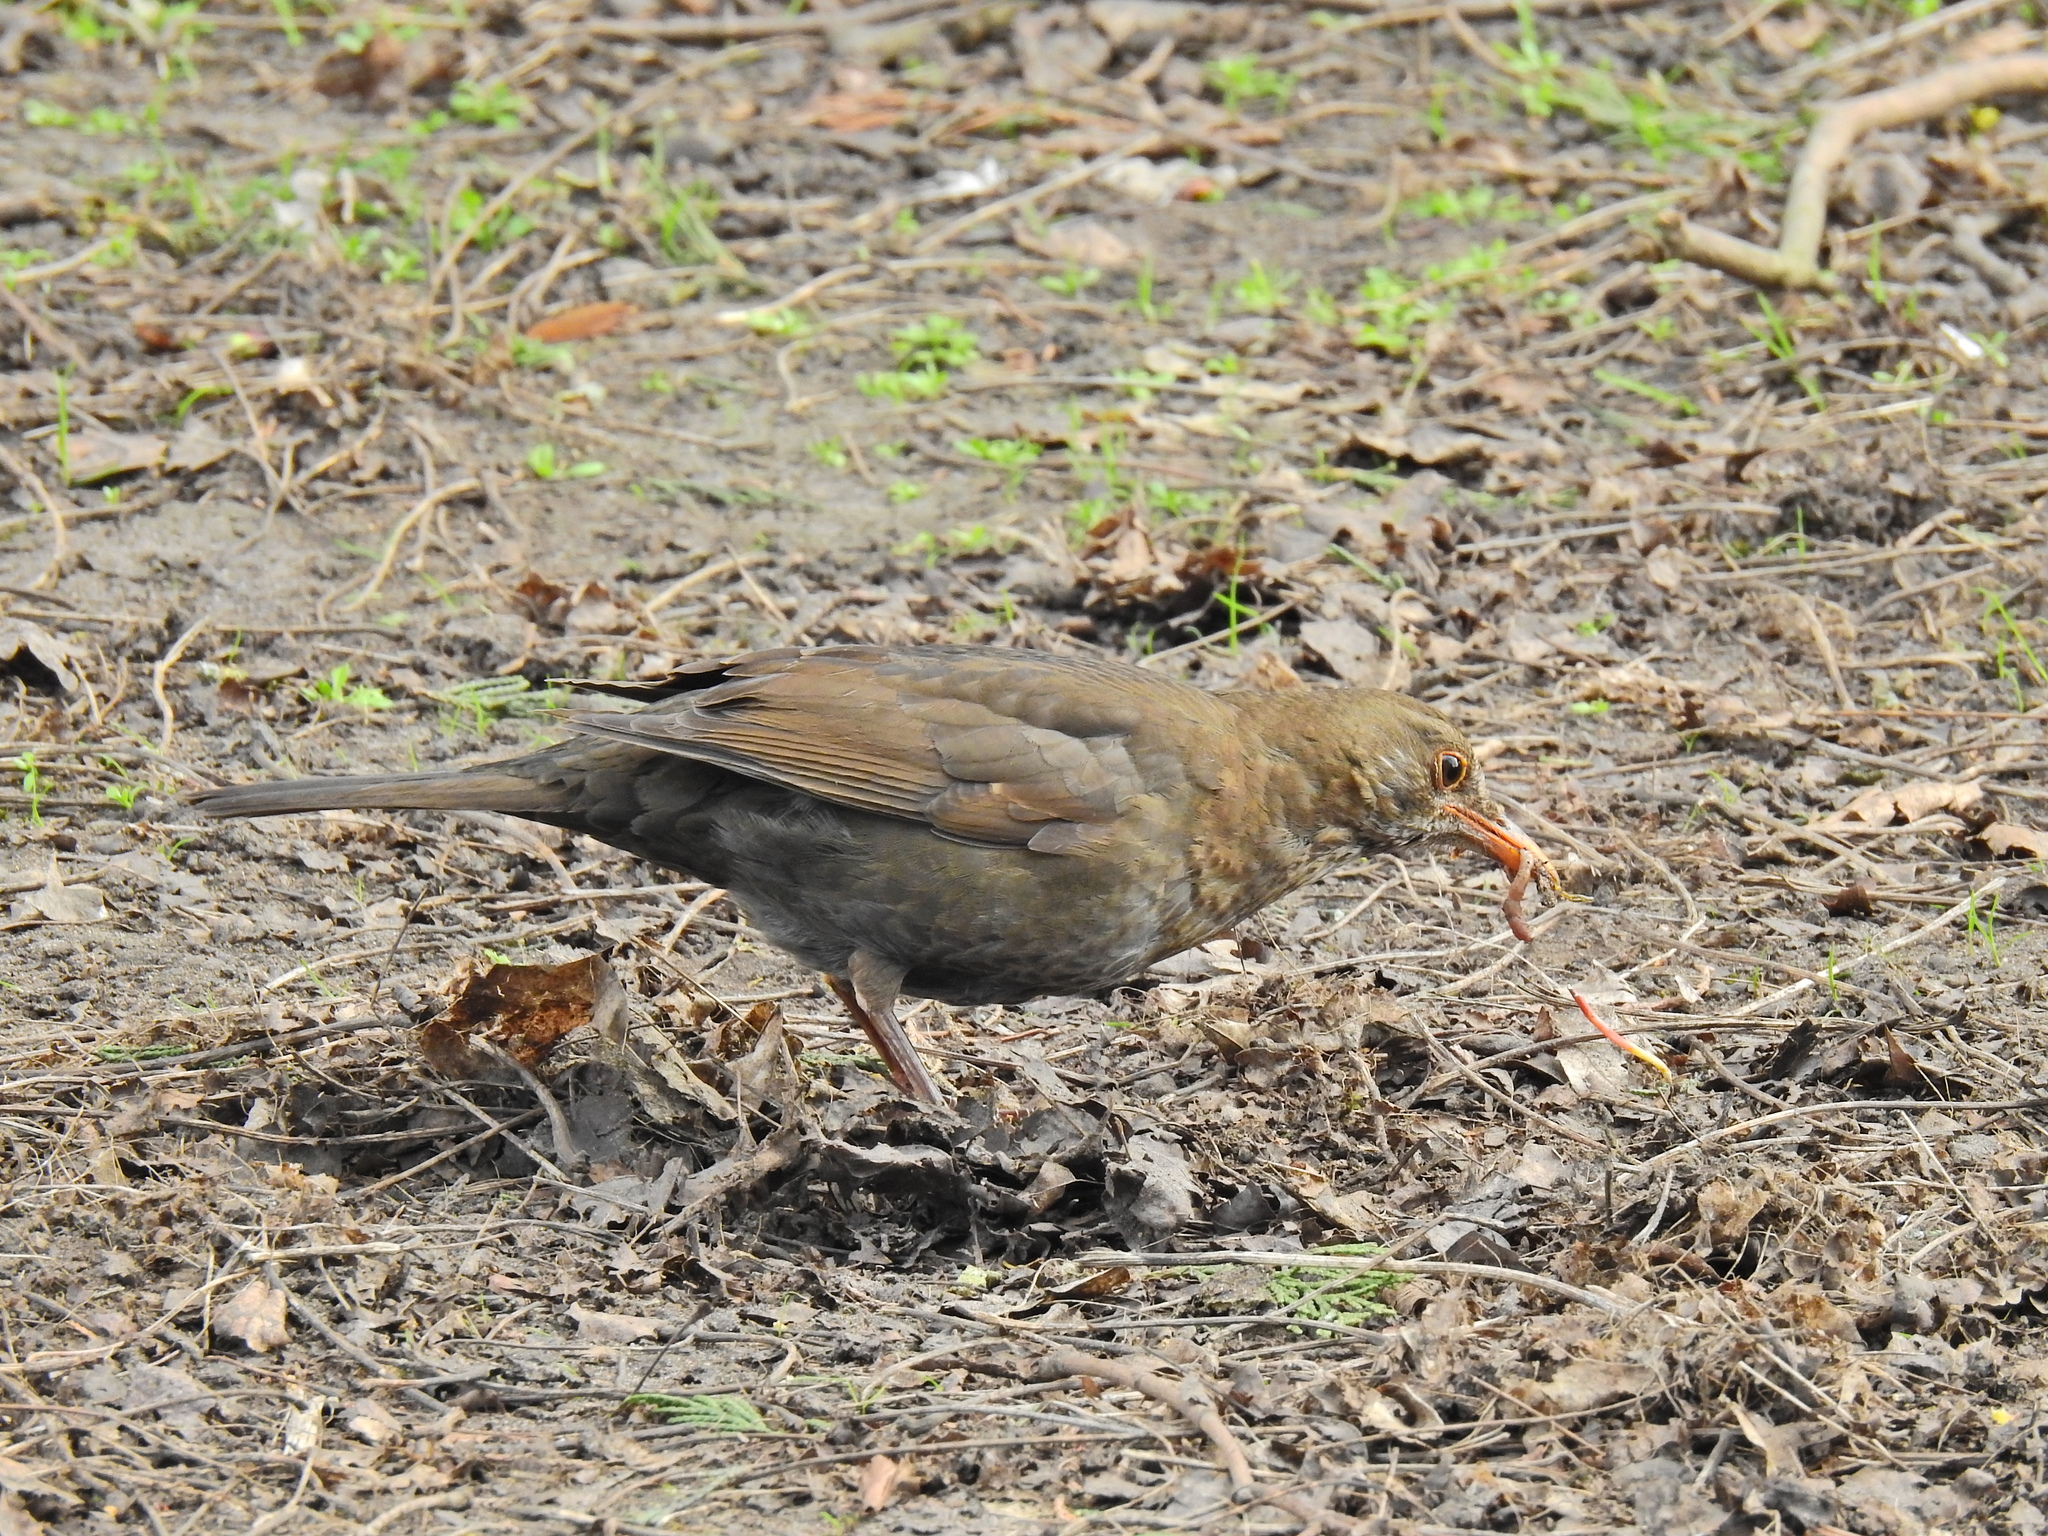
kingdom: Animalia
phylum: Chordata
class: Aves
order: Passeriformes
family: Turdidae
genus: Turdus
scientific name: Turdus merula
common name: Common blackbird
